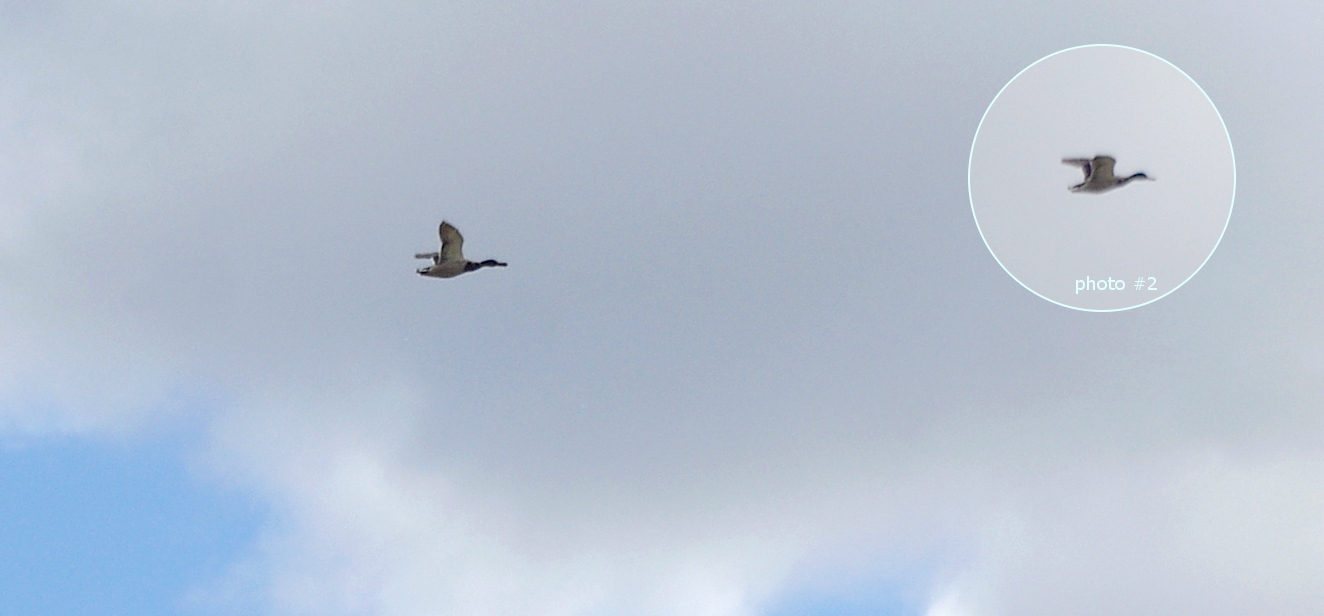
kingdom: Animalia
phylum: Chordata
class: Aves
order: Anseriformes
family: Anatidae
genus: Anas
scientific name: Anas platyrhynchos
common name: Mallard
